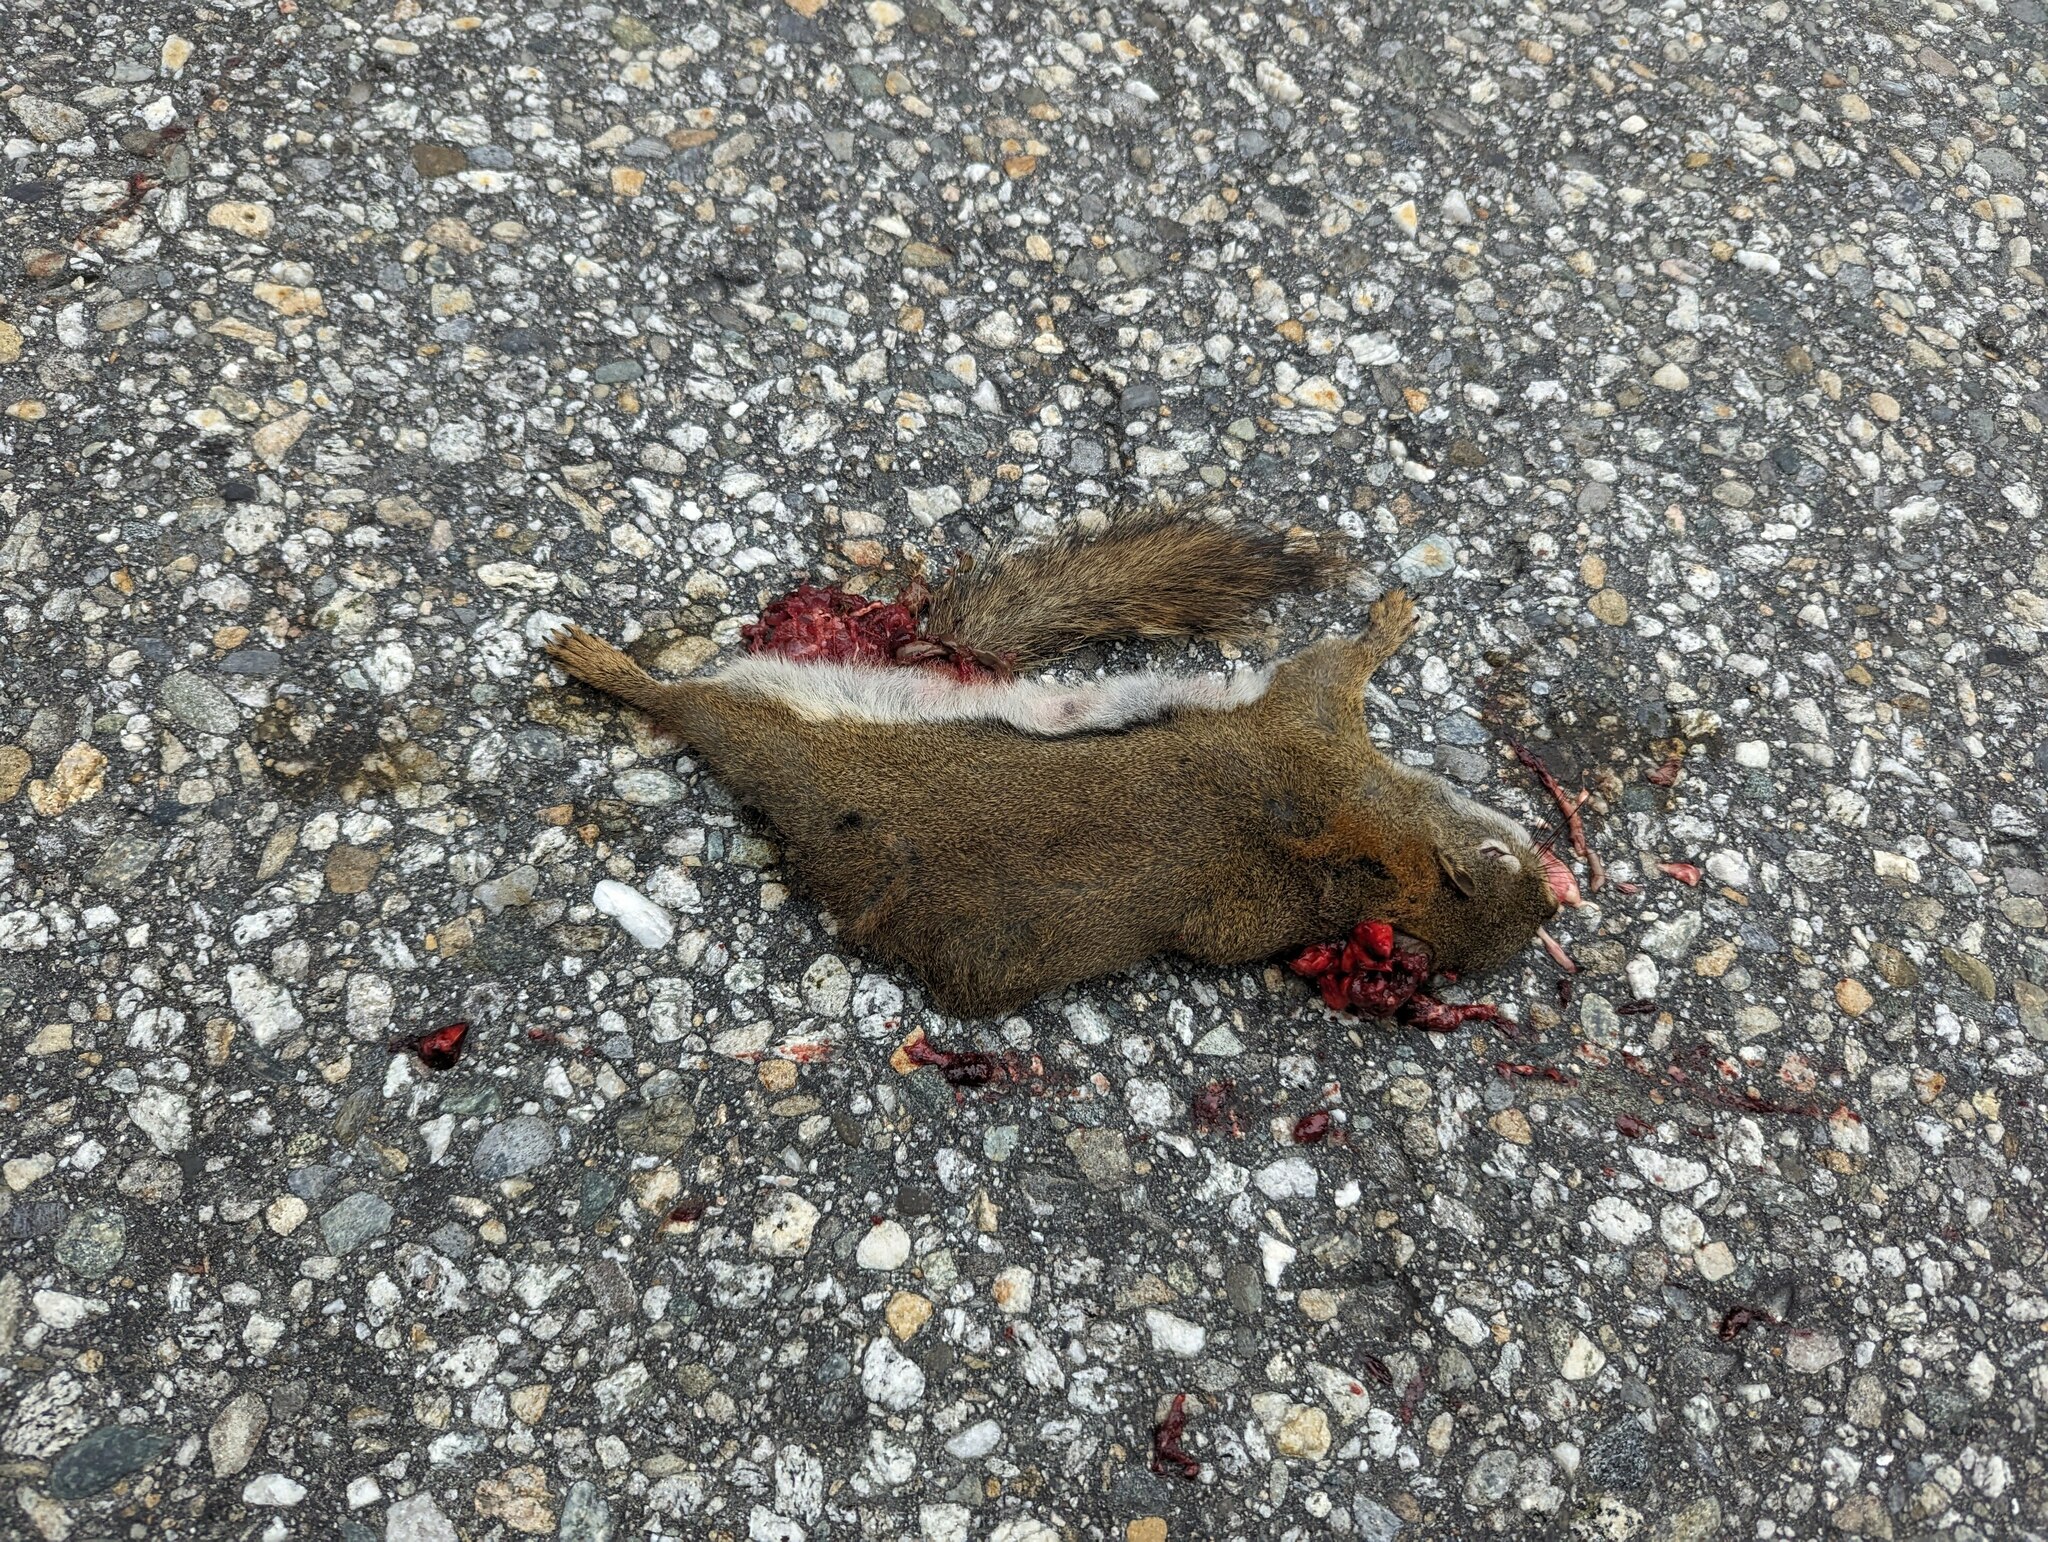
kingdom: Animalia
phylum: Chordata
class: Mammalia
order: Rodentia
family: Sciuridae
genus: Tamiasciurus
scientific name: Tamiasciurus hudsonicus
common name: Red squirrel
